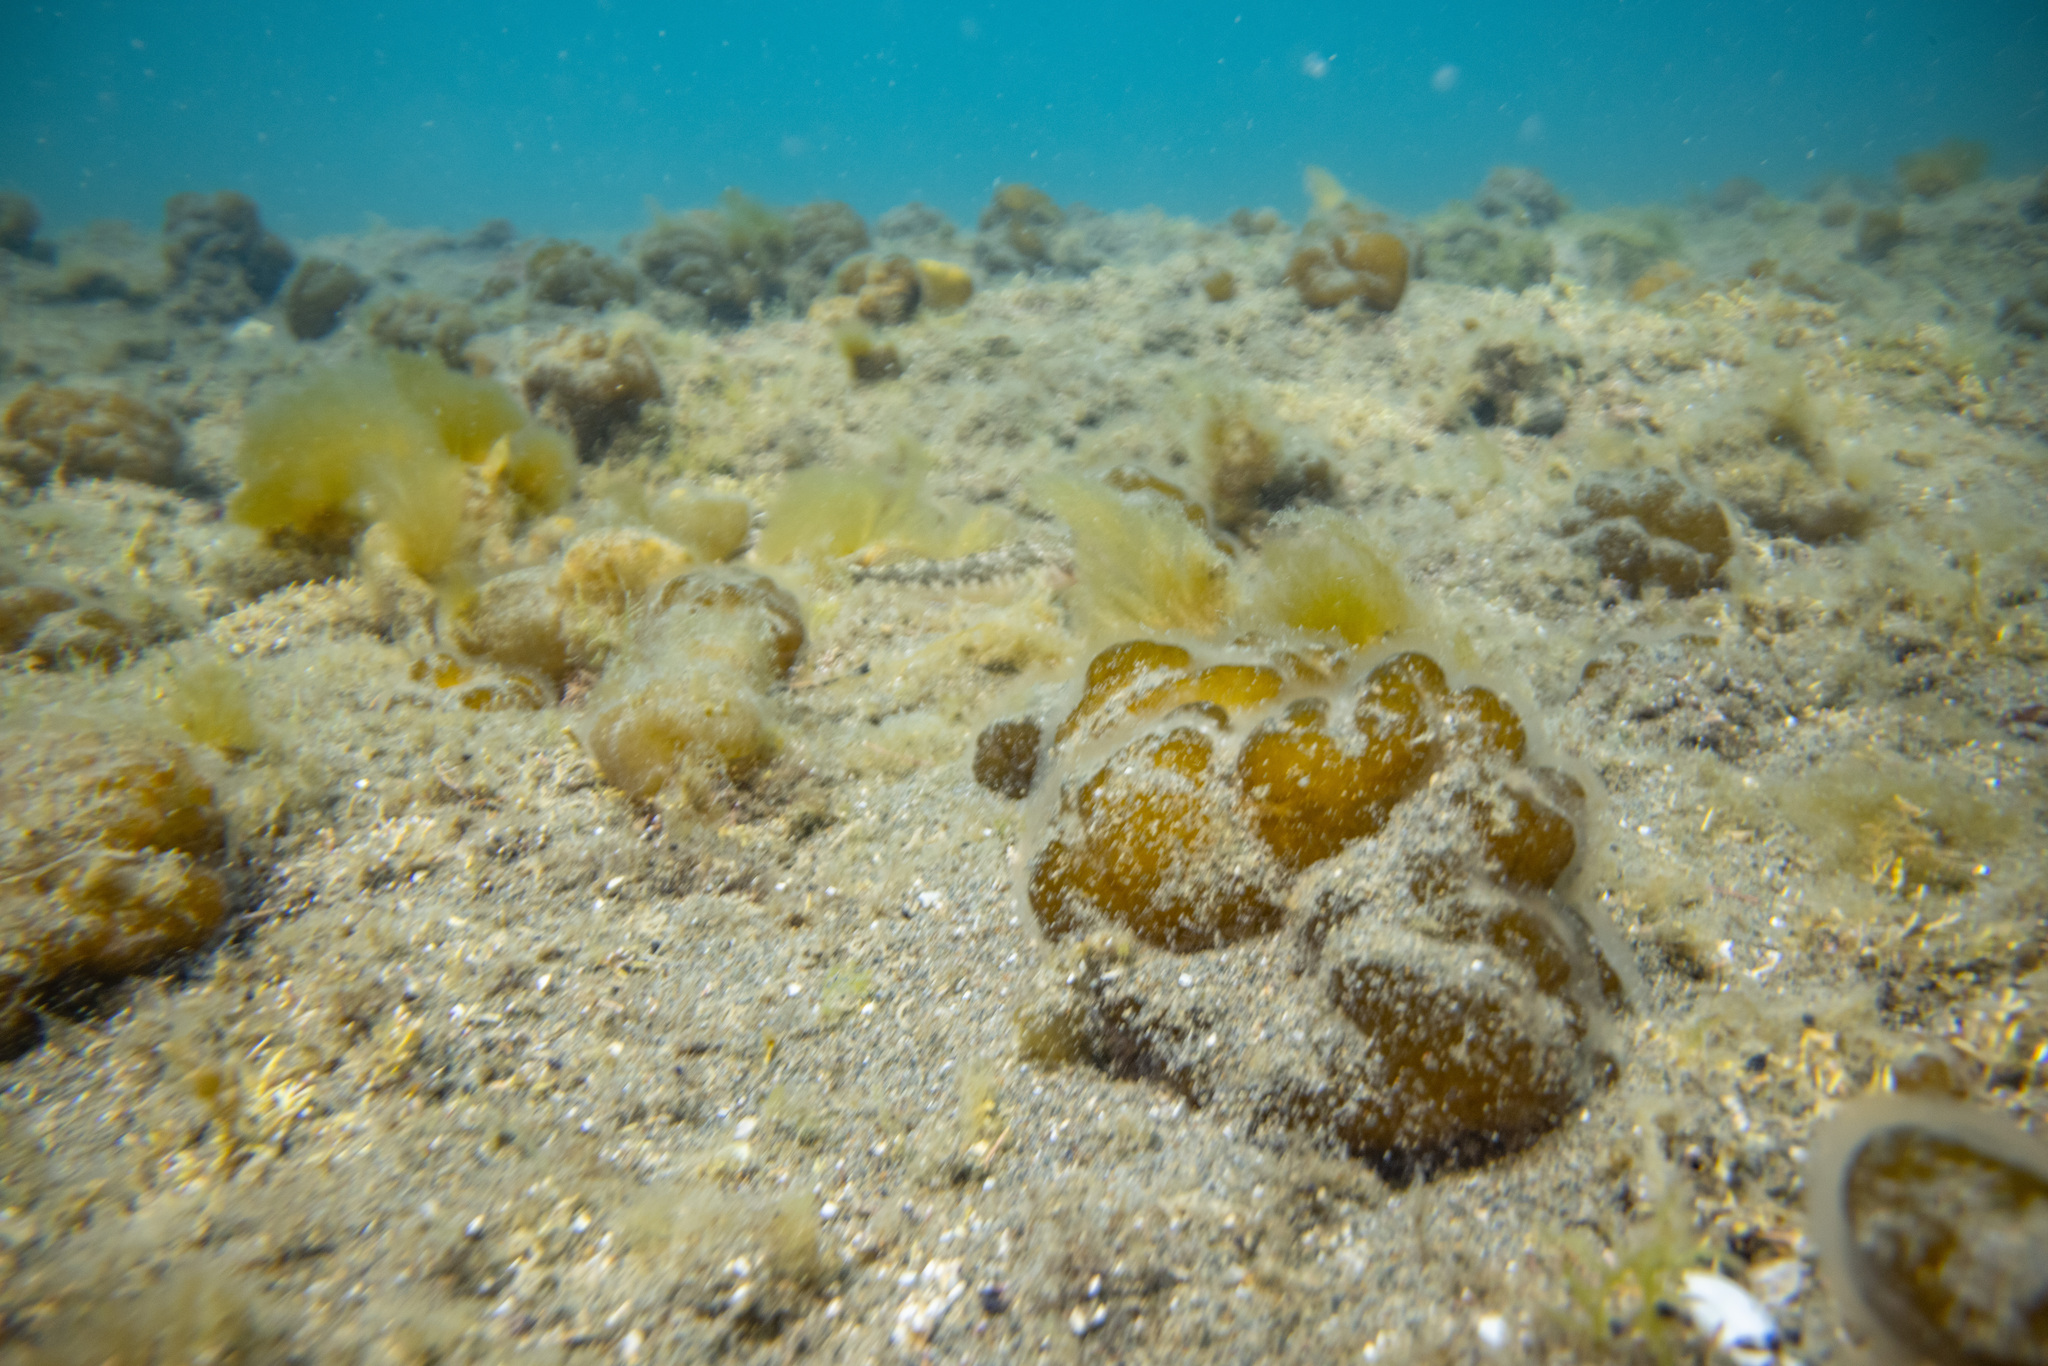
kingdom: Chromista
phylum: Ochrophyta
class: Phaeophyceae
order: Ectocarpales
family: Chordariaceae
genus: Leathesia
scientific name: Leathesia marina
